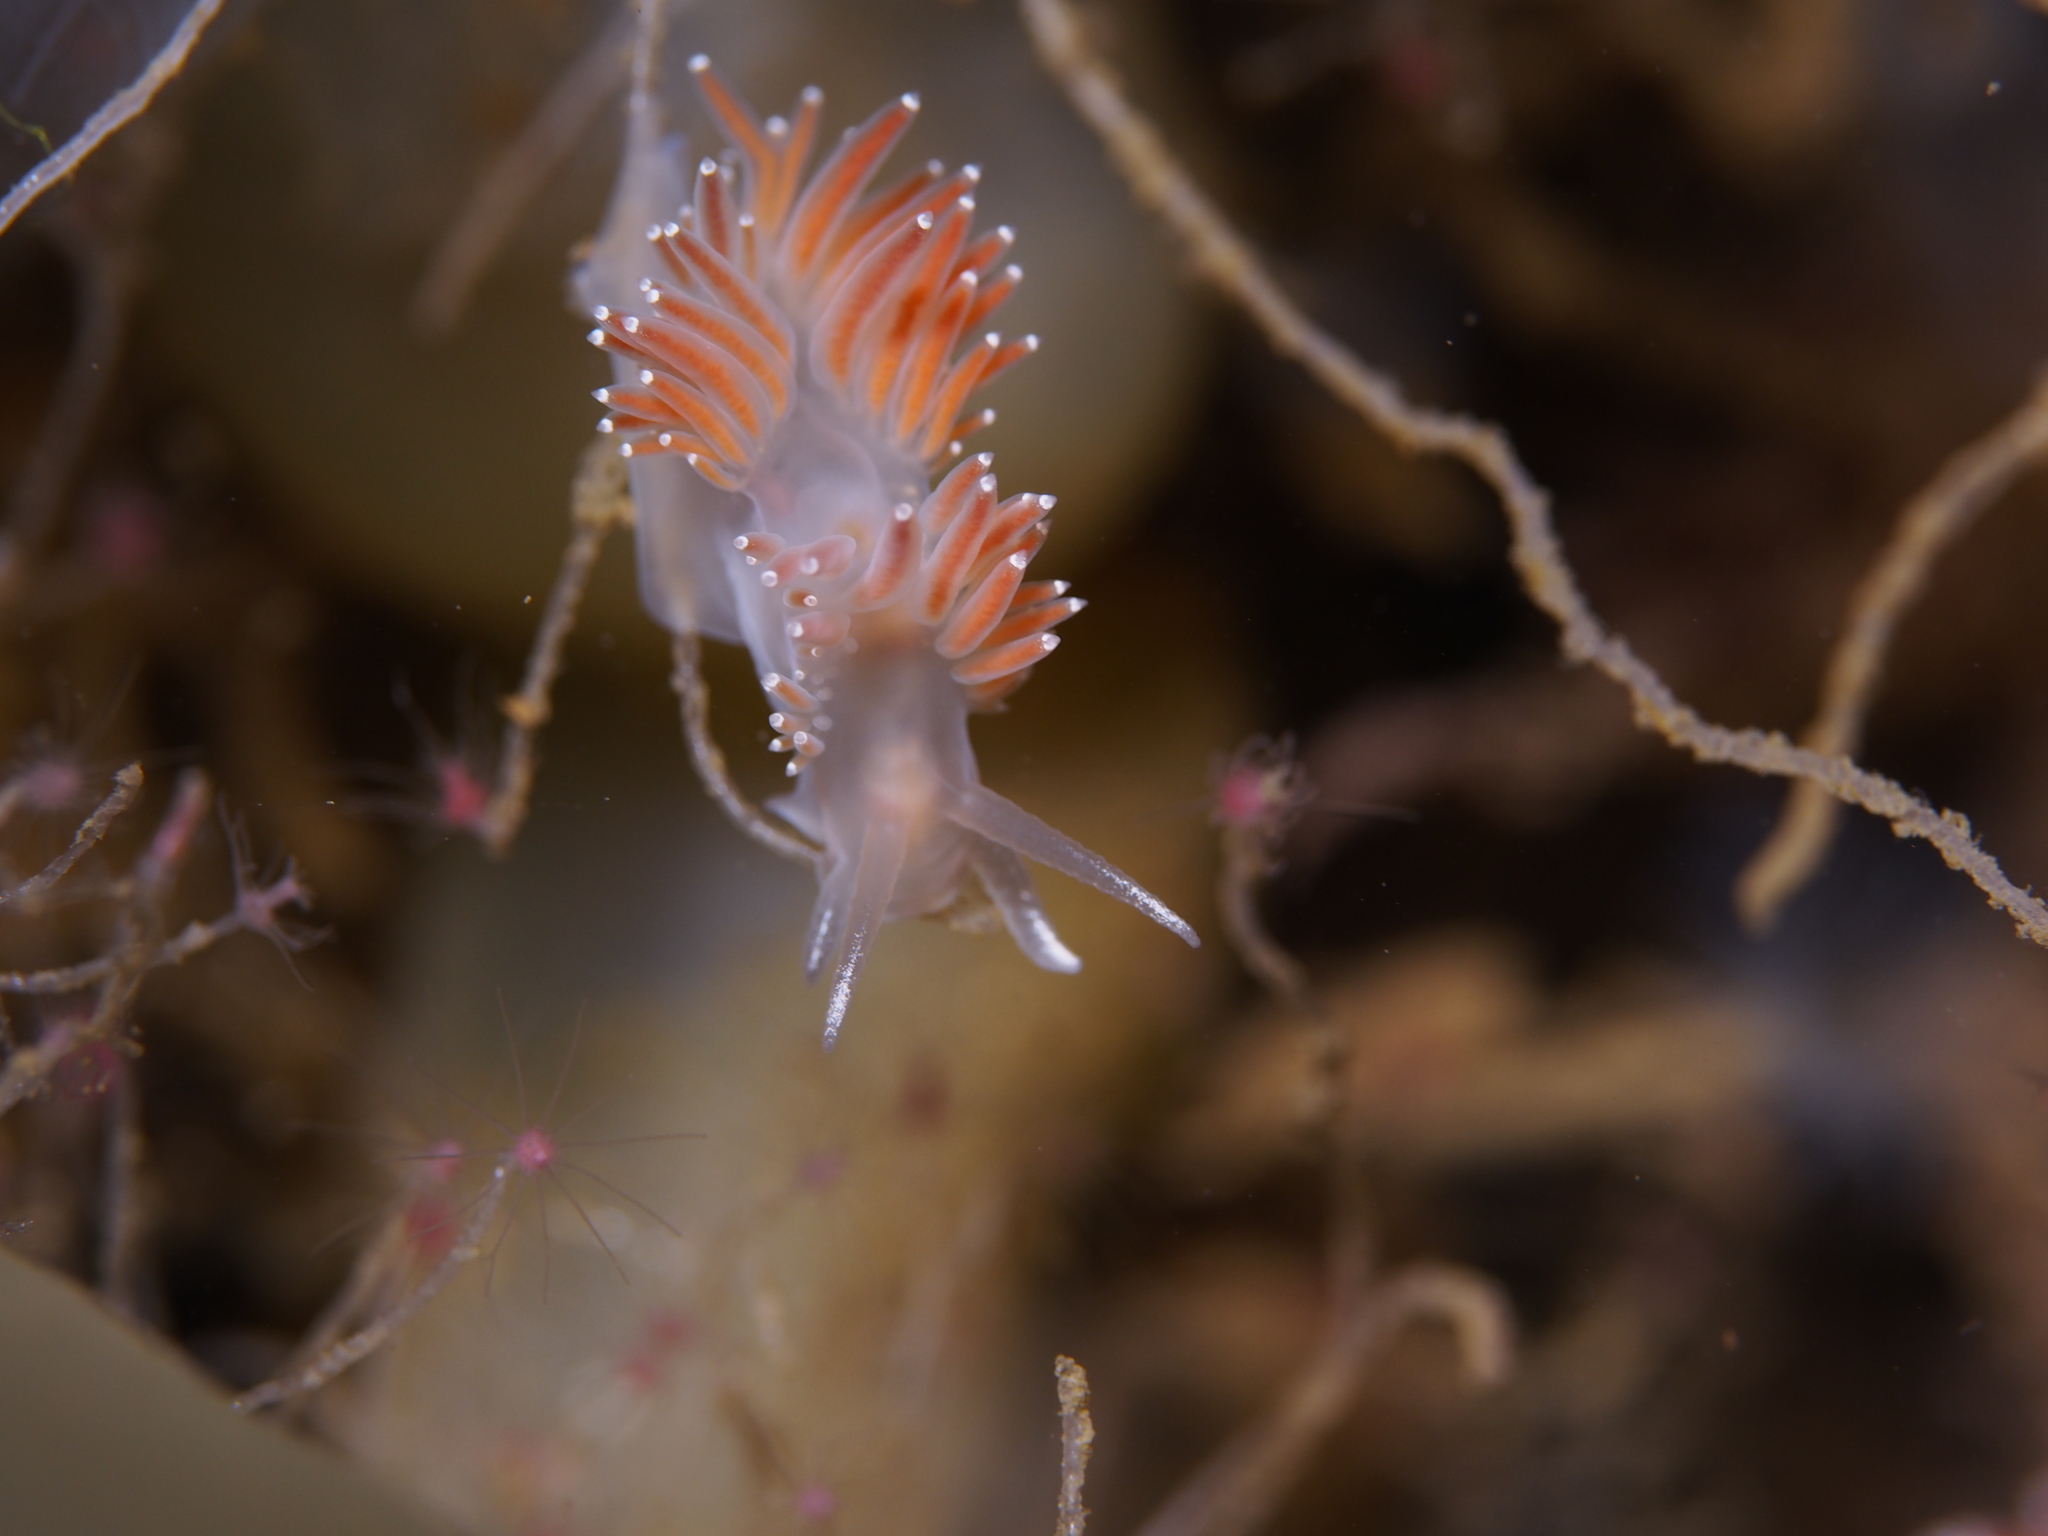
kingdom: Animalia
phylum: Mollusca
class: Gastropoda
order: Nudibranchia
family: Coryphellidae
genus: Coryphella
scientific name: Coryphella verrucosa
